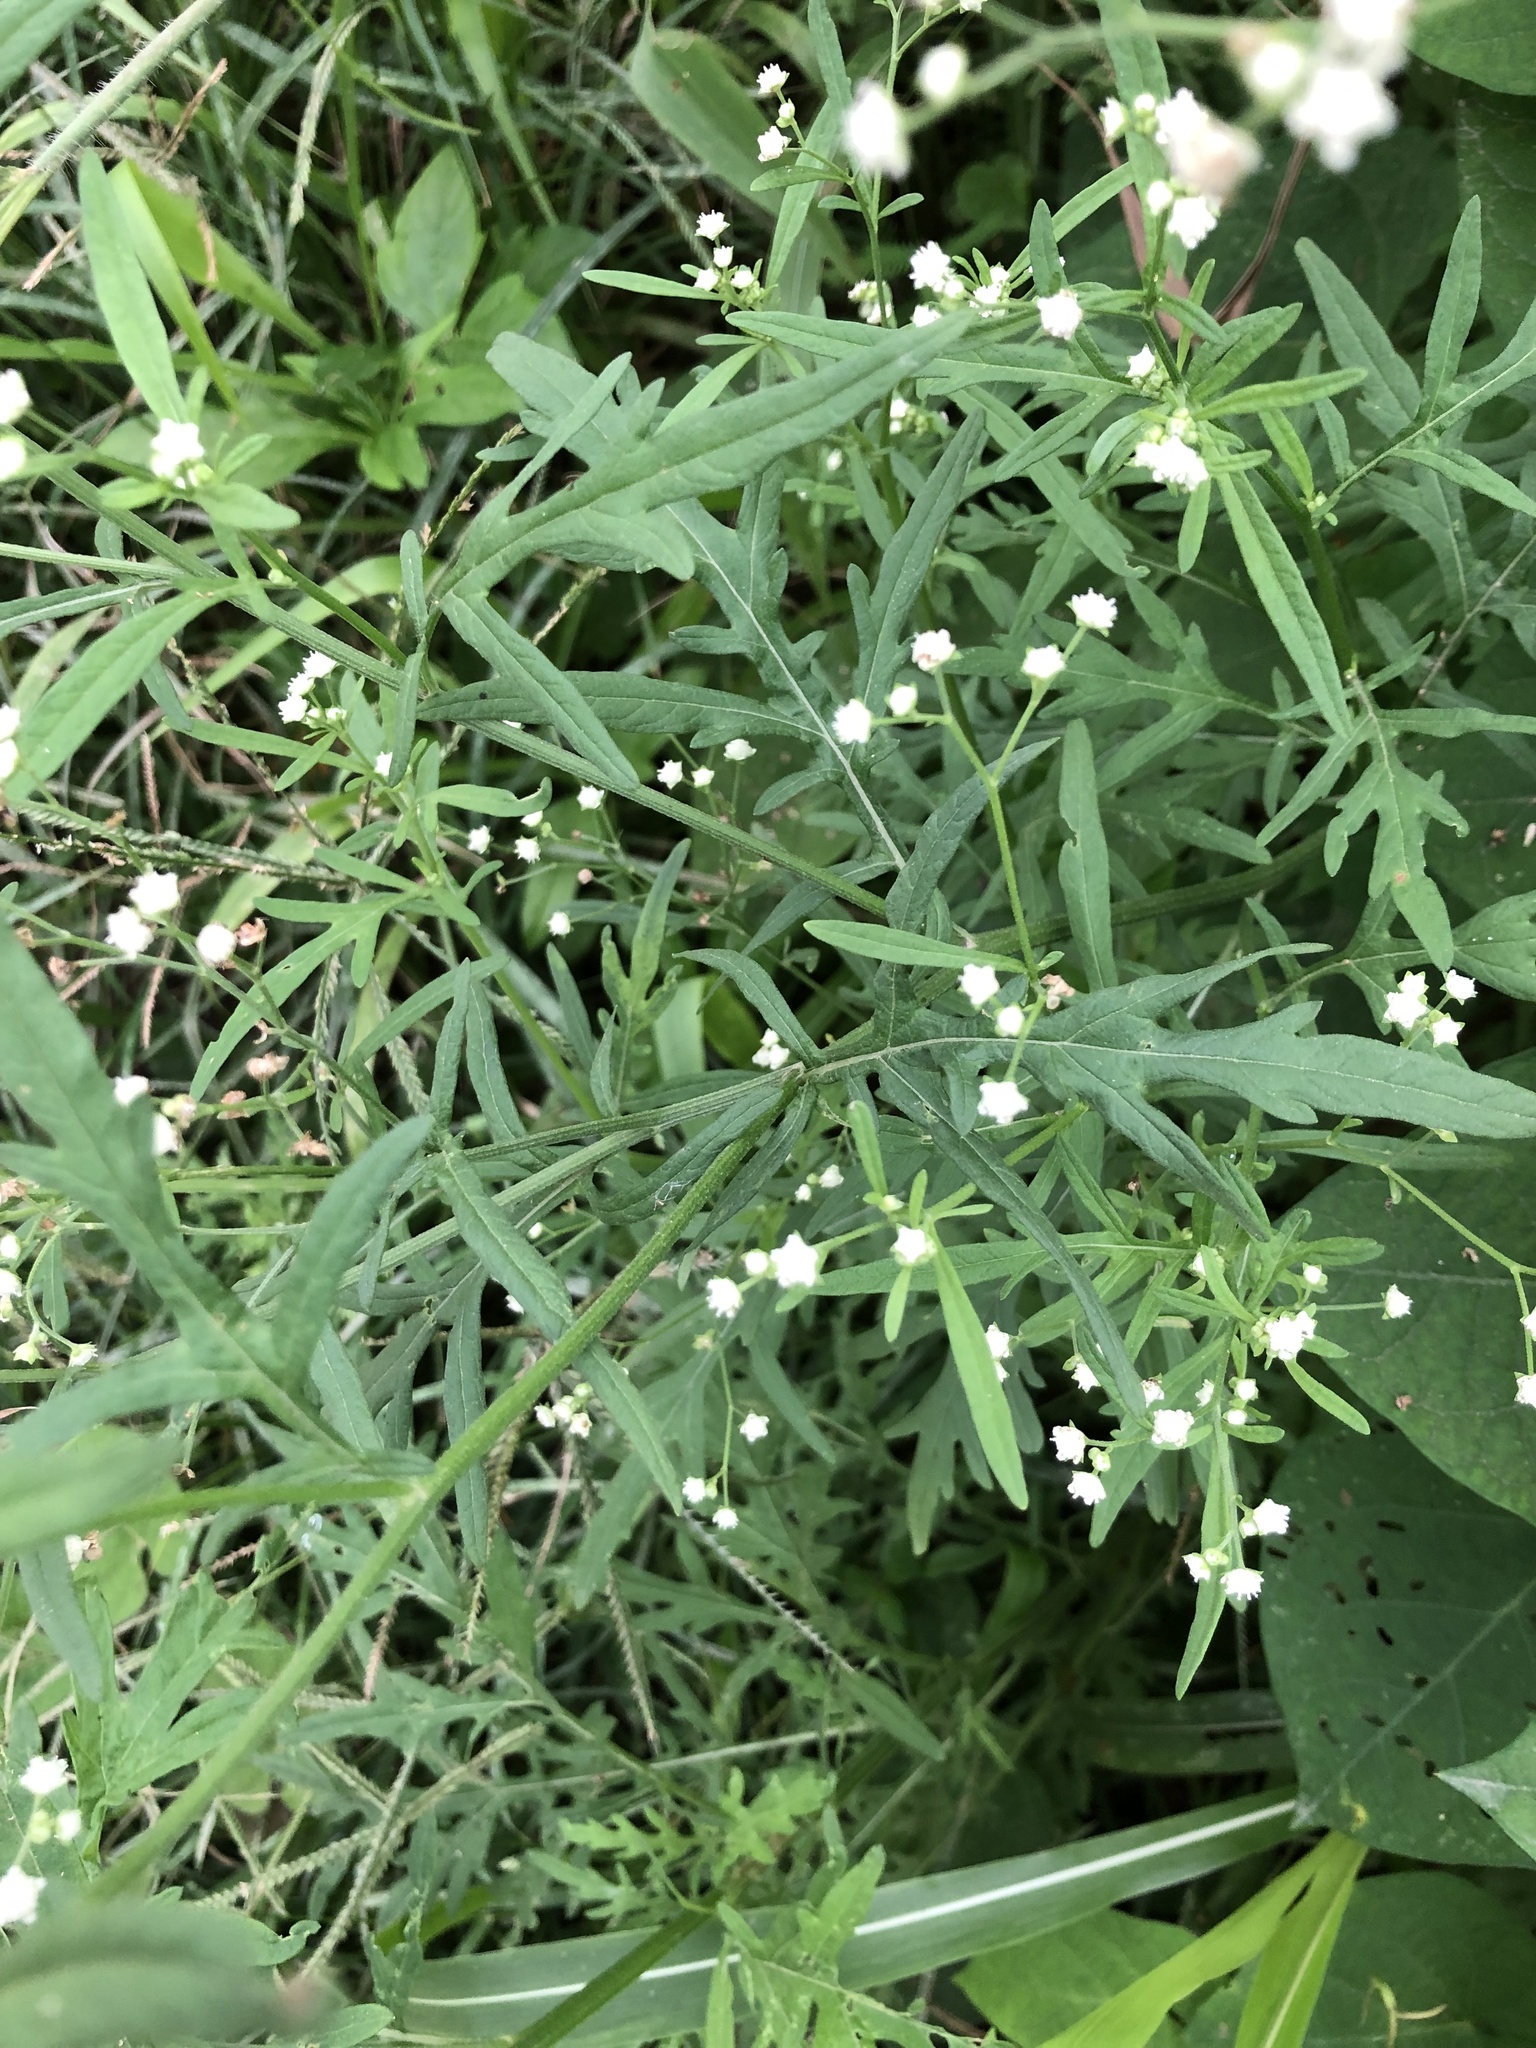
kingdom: Plantae
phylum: Tracheophyta
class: Magnoliopsida
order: Asterales
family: Asteraceae
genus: Parthenium
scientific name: Parthenium hysterophorus
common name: Santa maria feverfew
